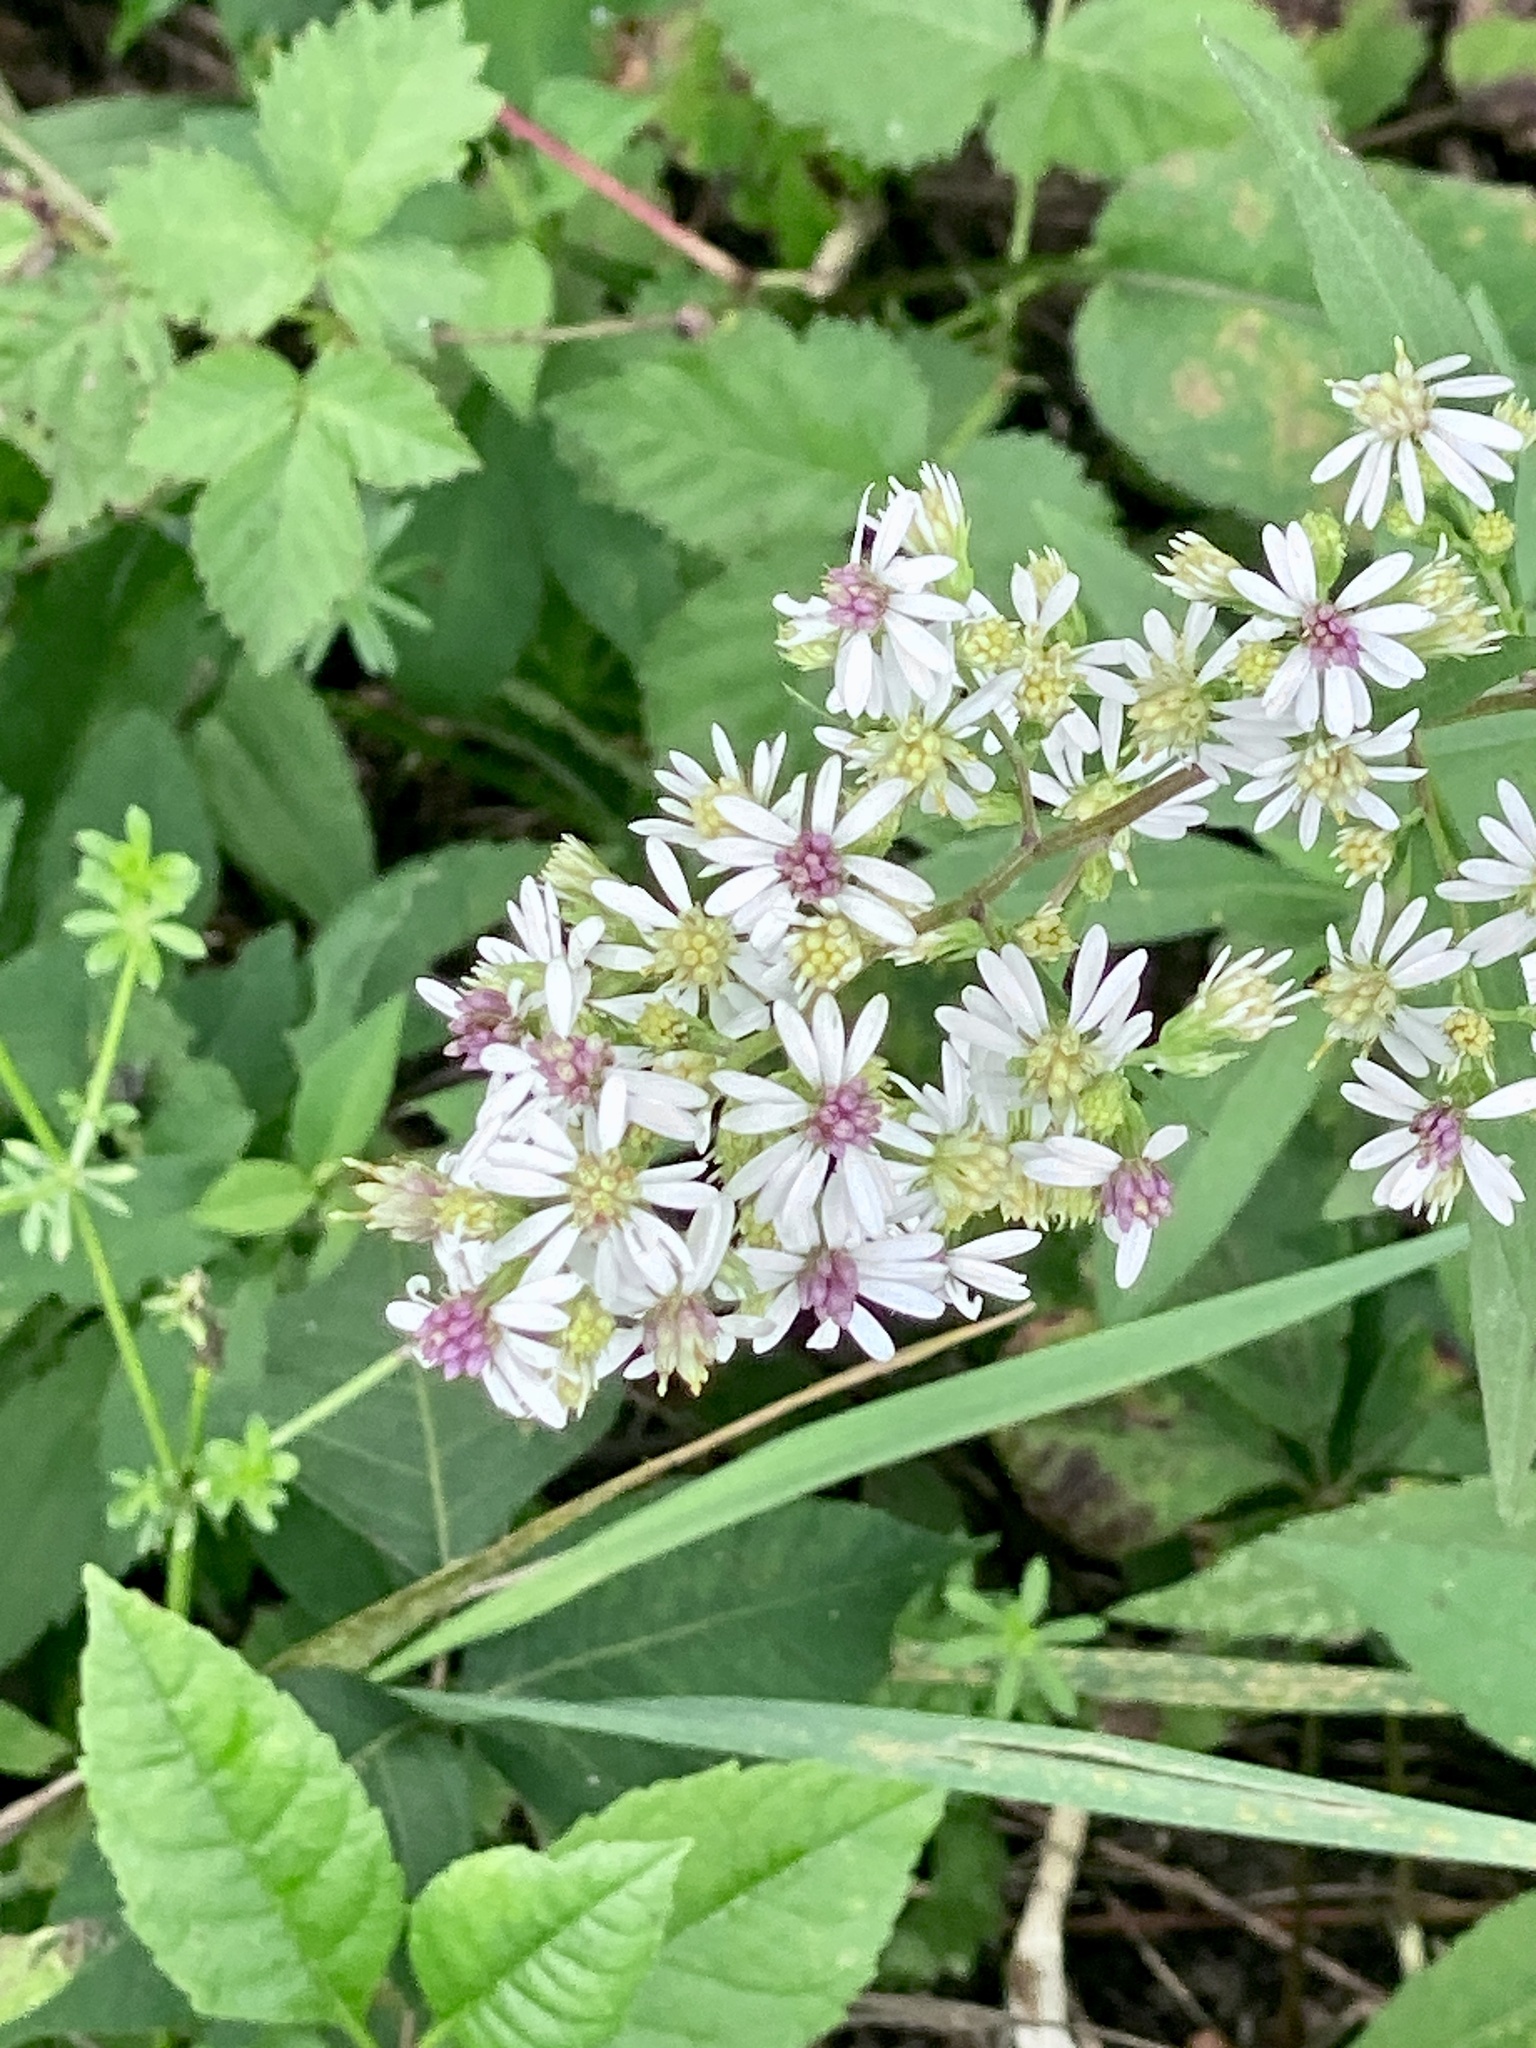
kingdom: Plantae
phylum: Tracheophyta
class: Magnoliopsida
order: Asterales
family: Asteraceae
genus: Symphyotrichum
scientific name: Symphyotrichum lateriflorum
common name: Calico aster
